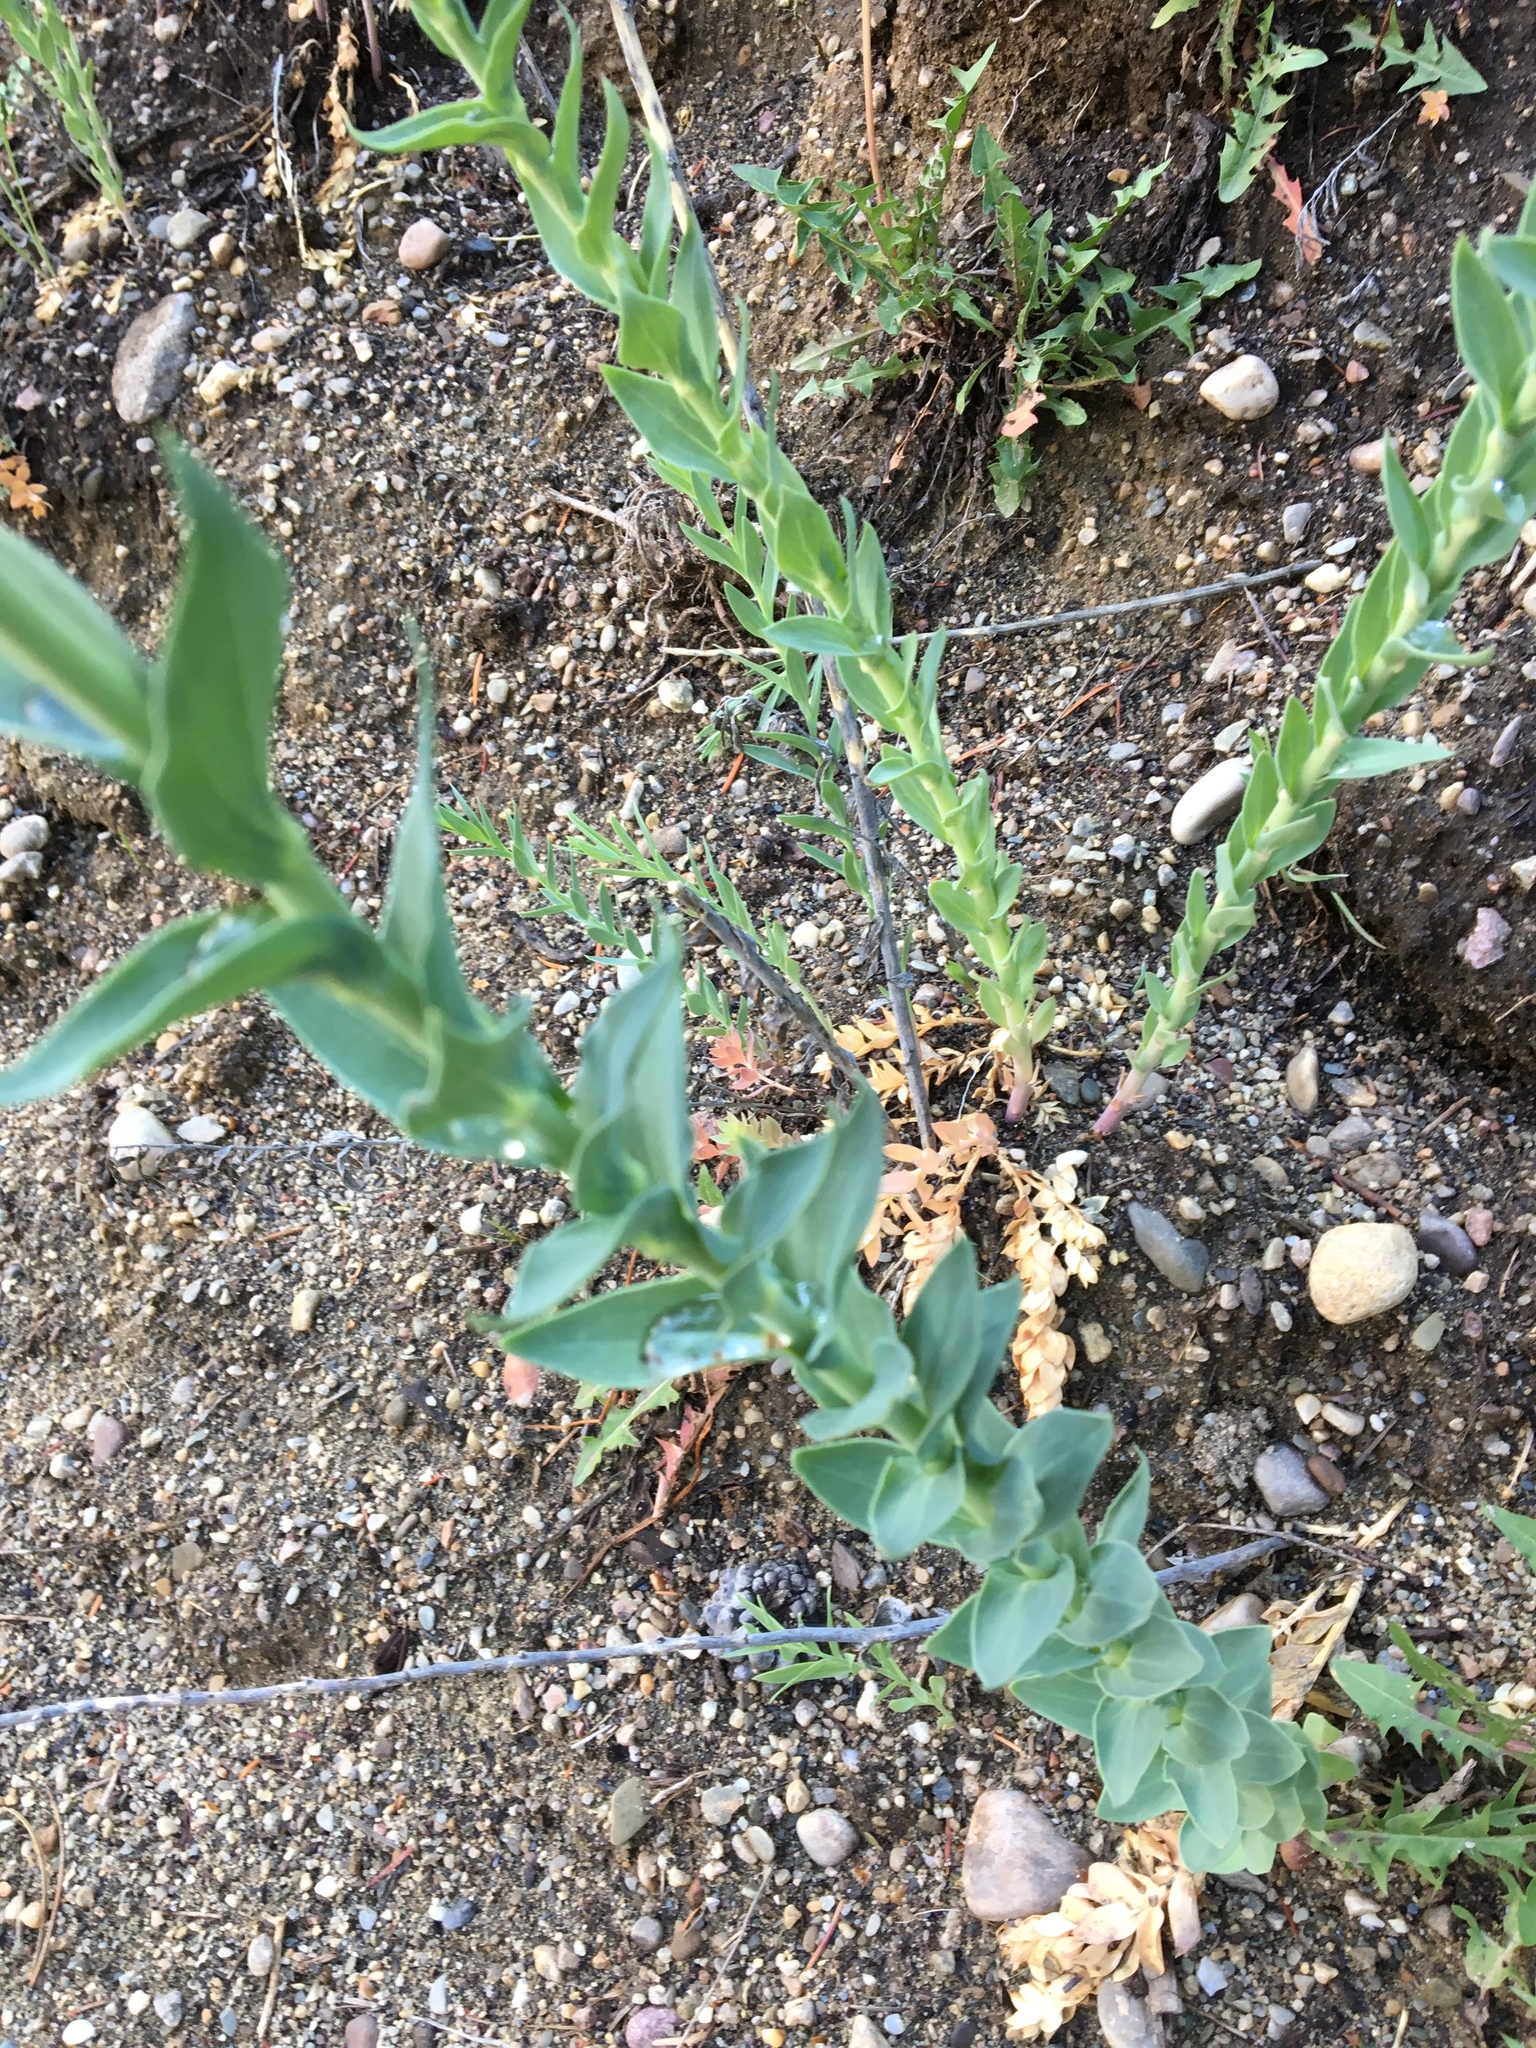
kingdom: Plantae
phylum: Tracheophyta
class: Magnoliopsida
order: Lamiales
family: Plantaginaceae
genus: Linaria
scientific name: Linaria dalmatica
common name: Dalmatian toadflax
